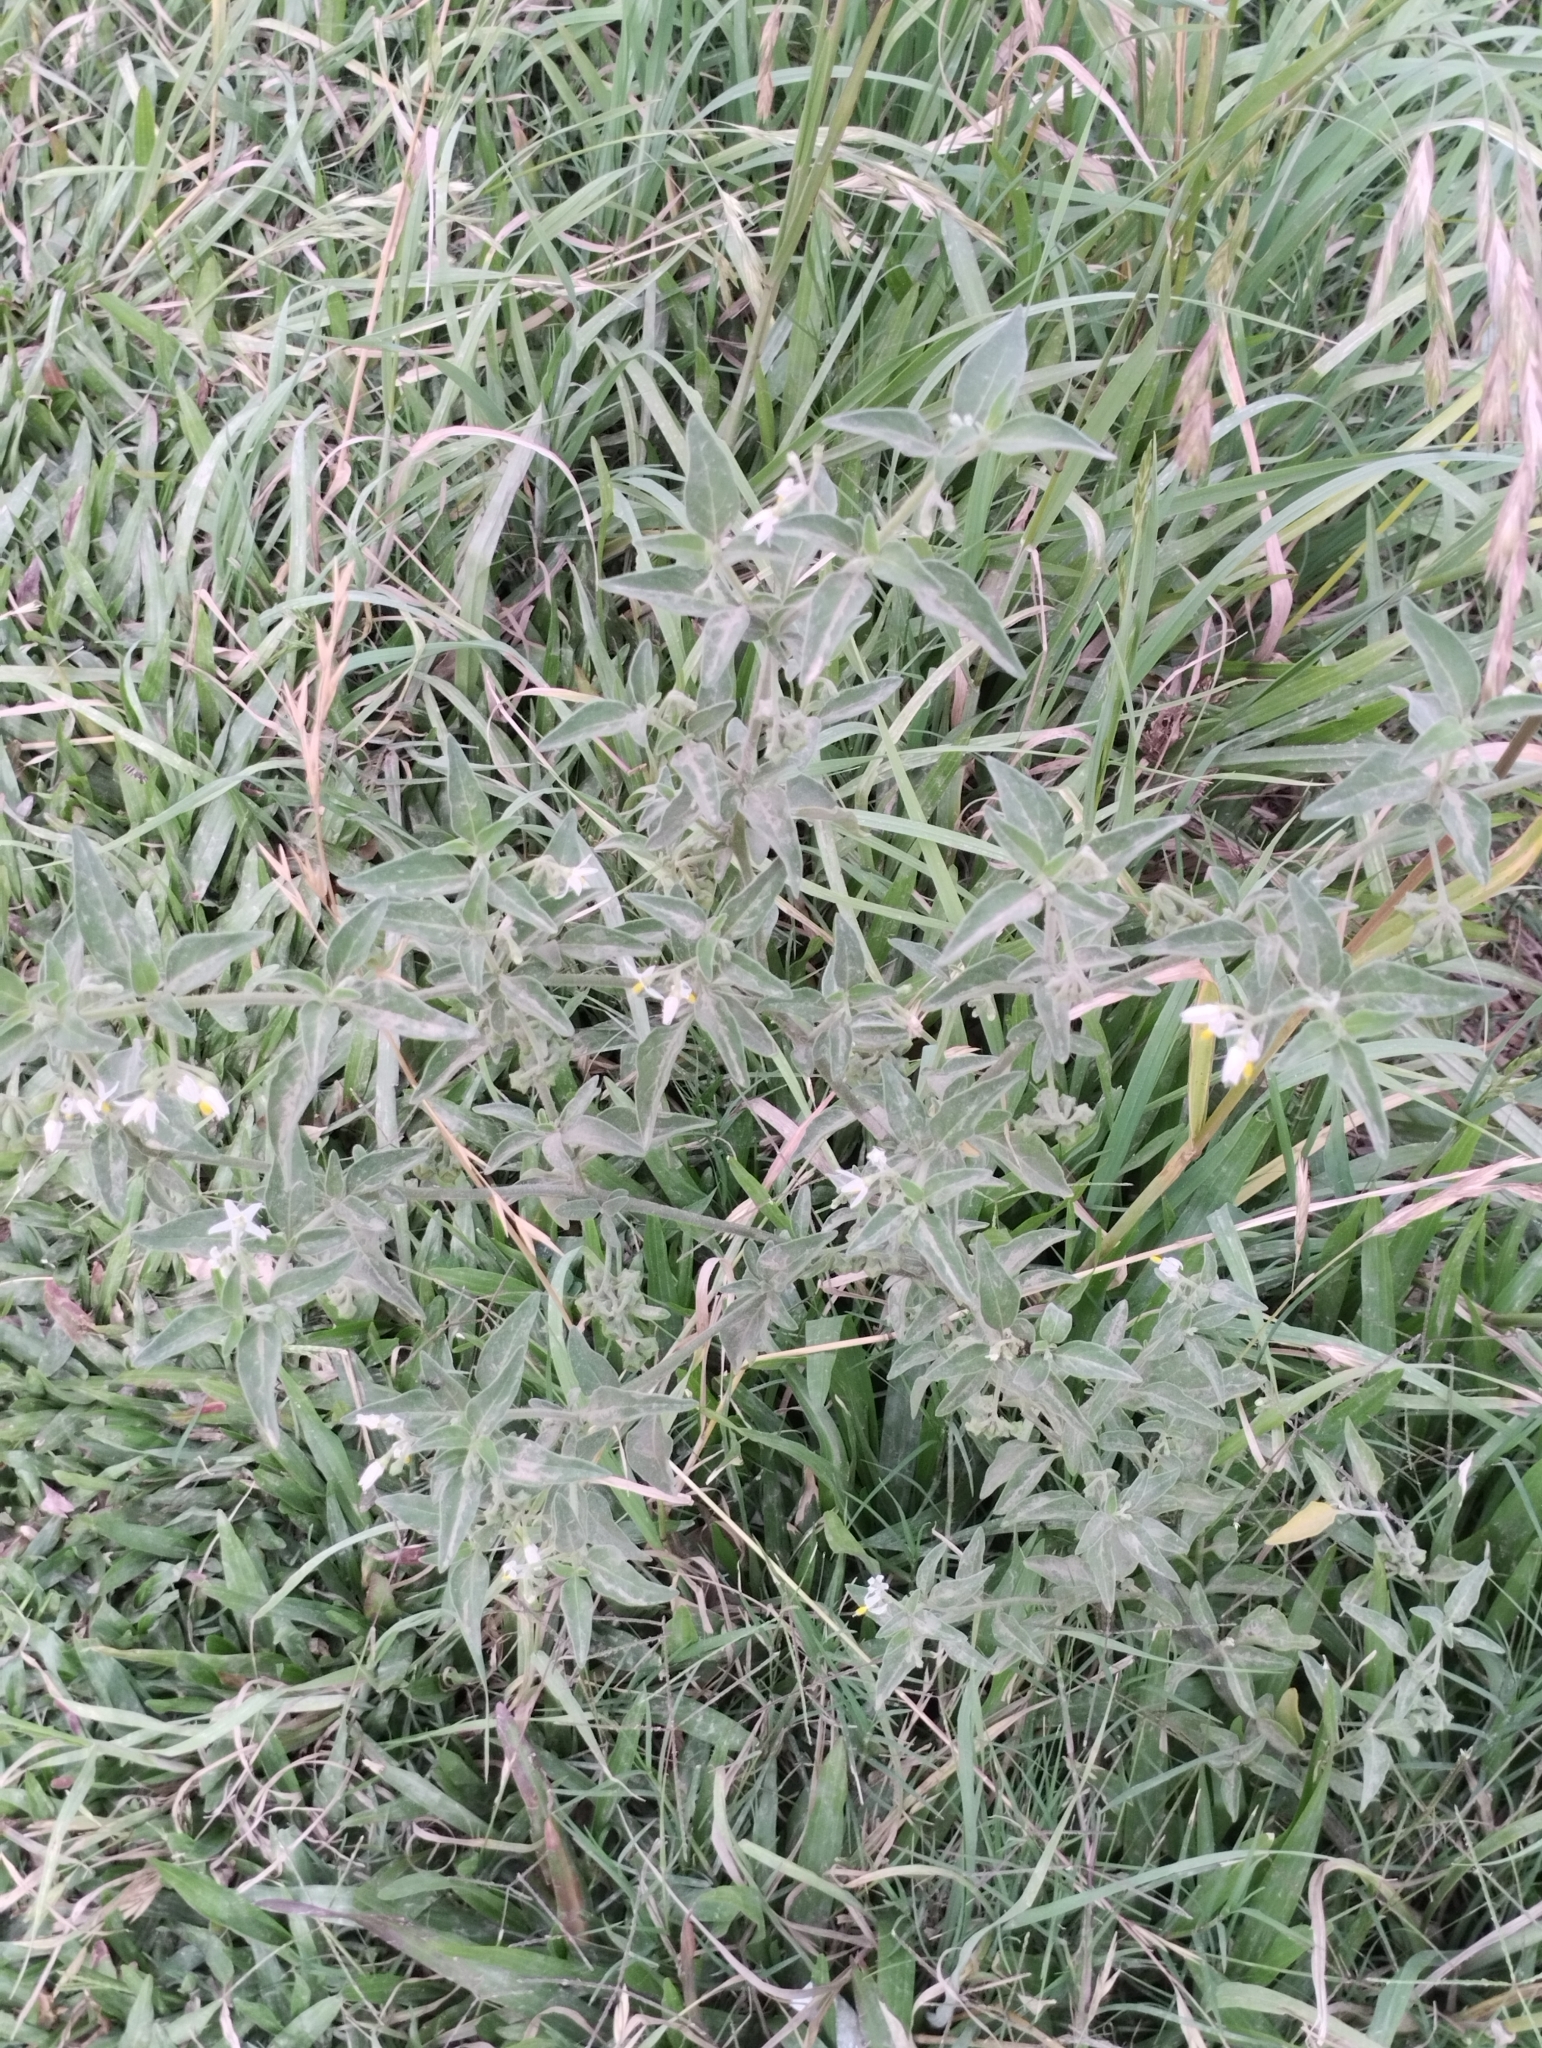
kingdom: Plantae
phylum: Tracheophyta
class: Magnoliopsida
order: Solanales
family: Solanaceae
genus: Solanum
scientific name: Solanum chenopodioides
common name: Tall nightshade
